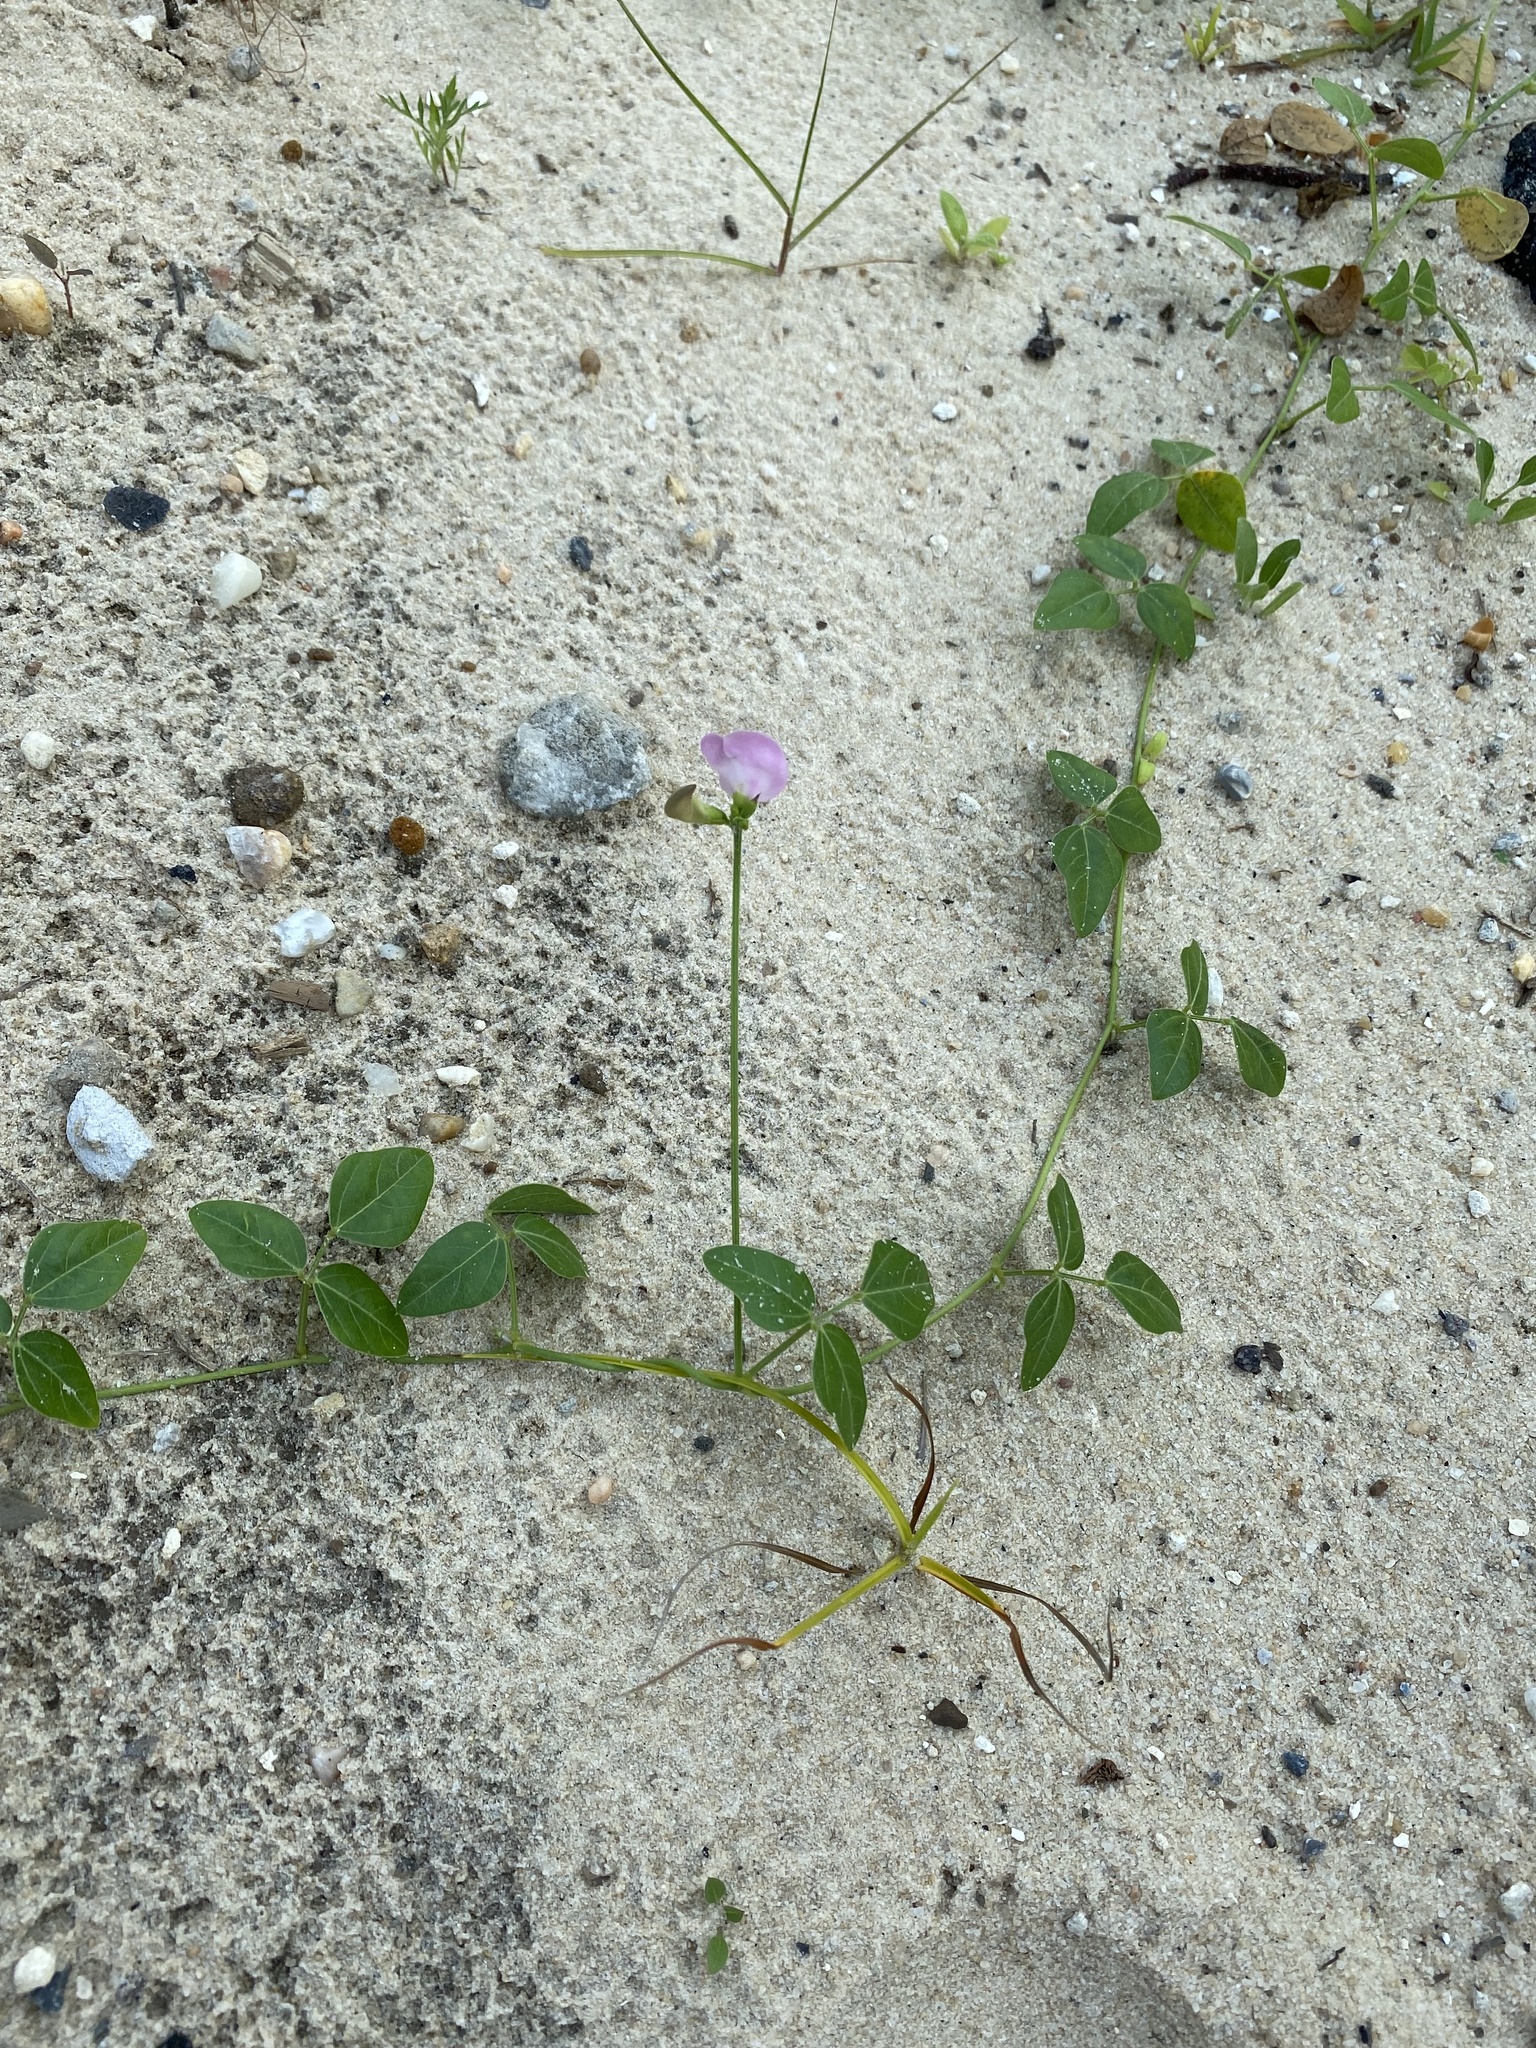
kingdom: Plantae
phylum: Tracheophyta
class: Magnoliopsida
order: Fabales
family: Fabaceae
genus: Strophostyles
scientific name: Strophostyles helvola
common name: Trailing wild bean
